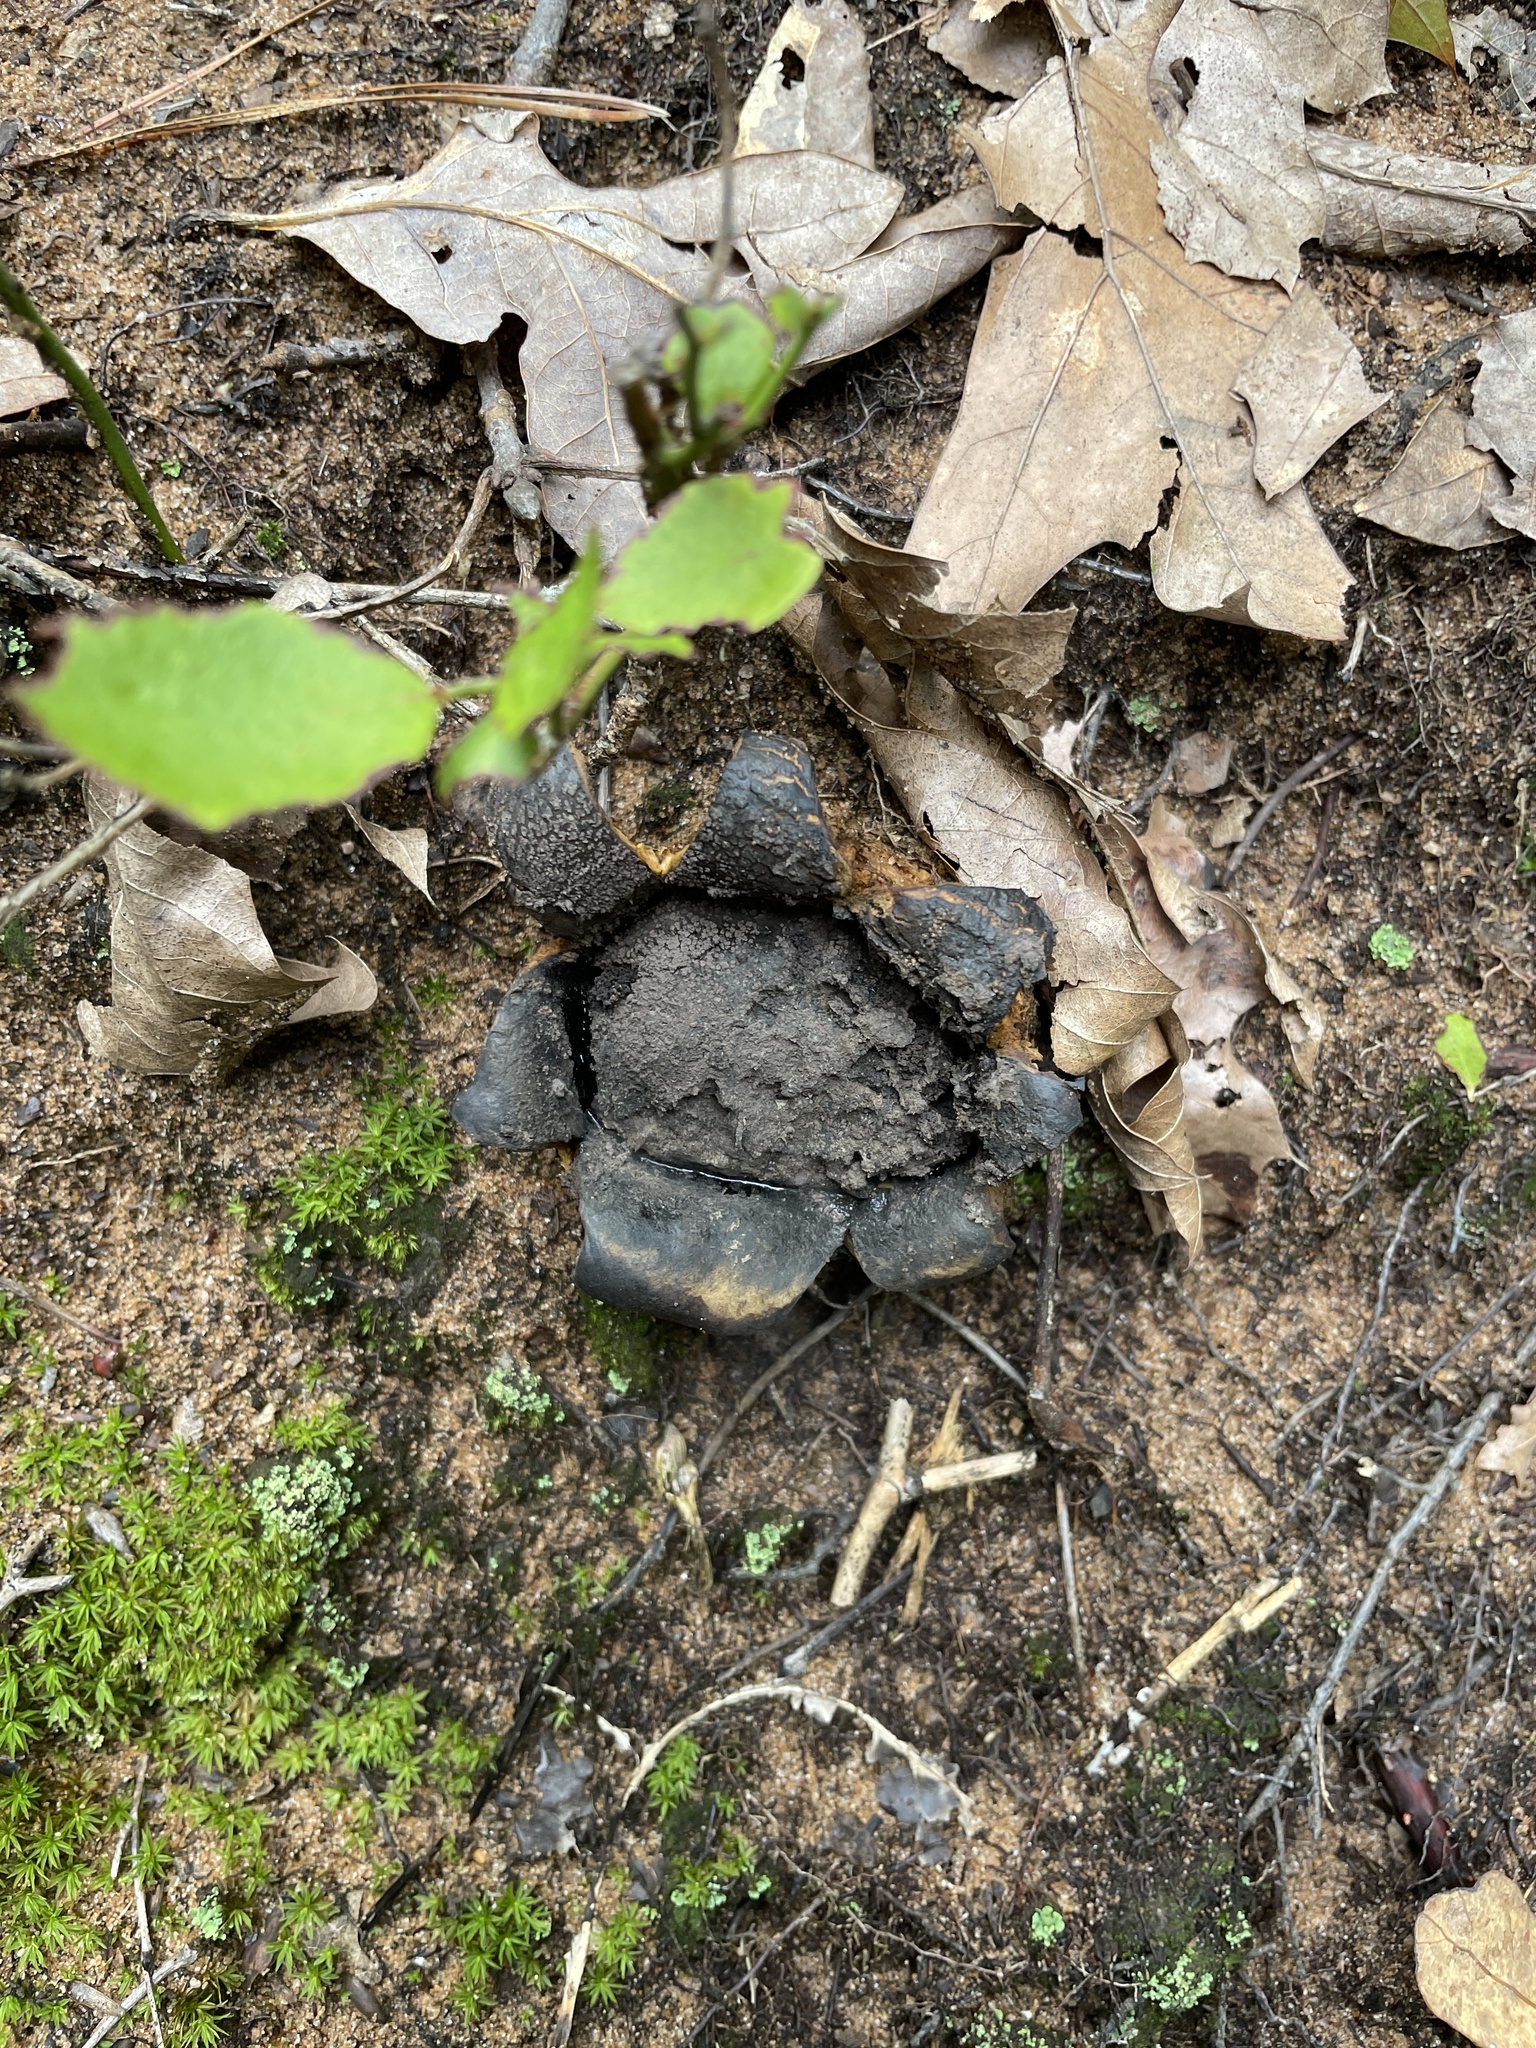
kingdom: Fungi
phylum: Basidiomycota
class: Agaricomycetes
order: Boletales
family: Sclerodermataceae
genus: Scleroderma
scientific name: Scleroderma polyrhizum
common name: Many-rooted earthball
